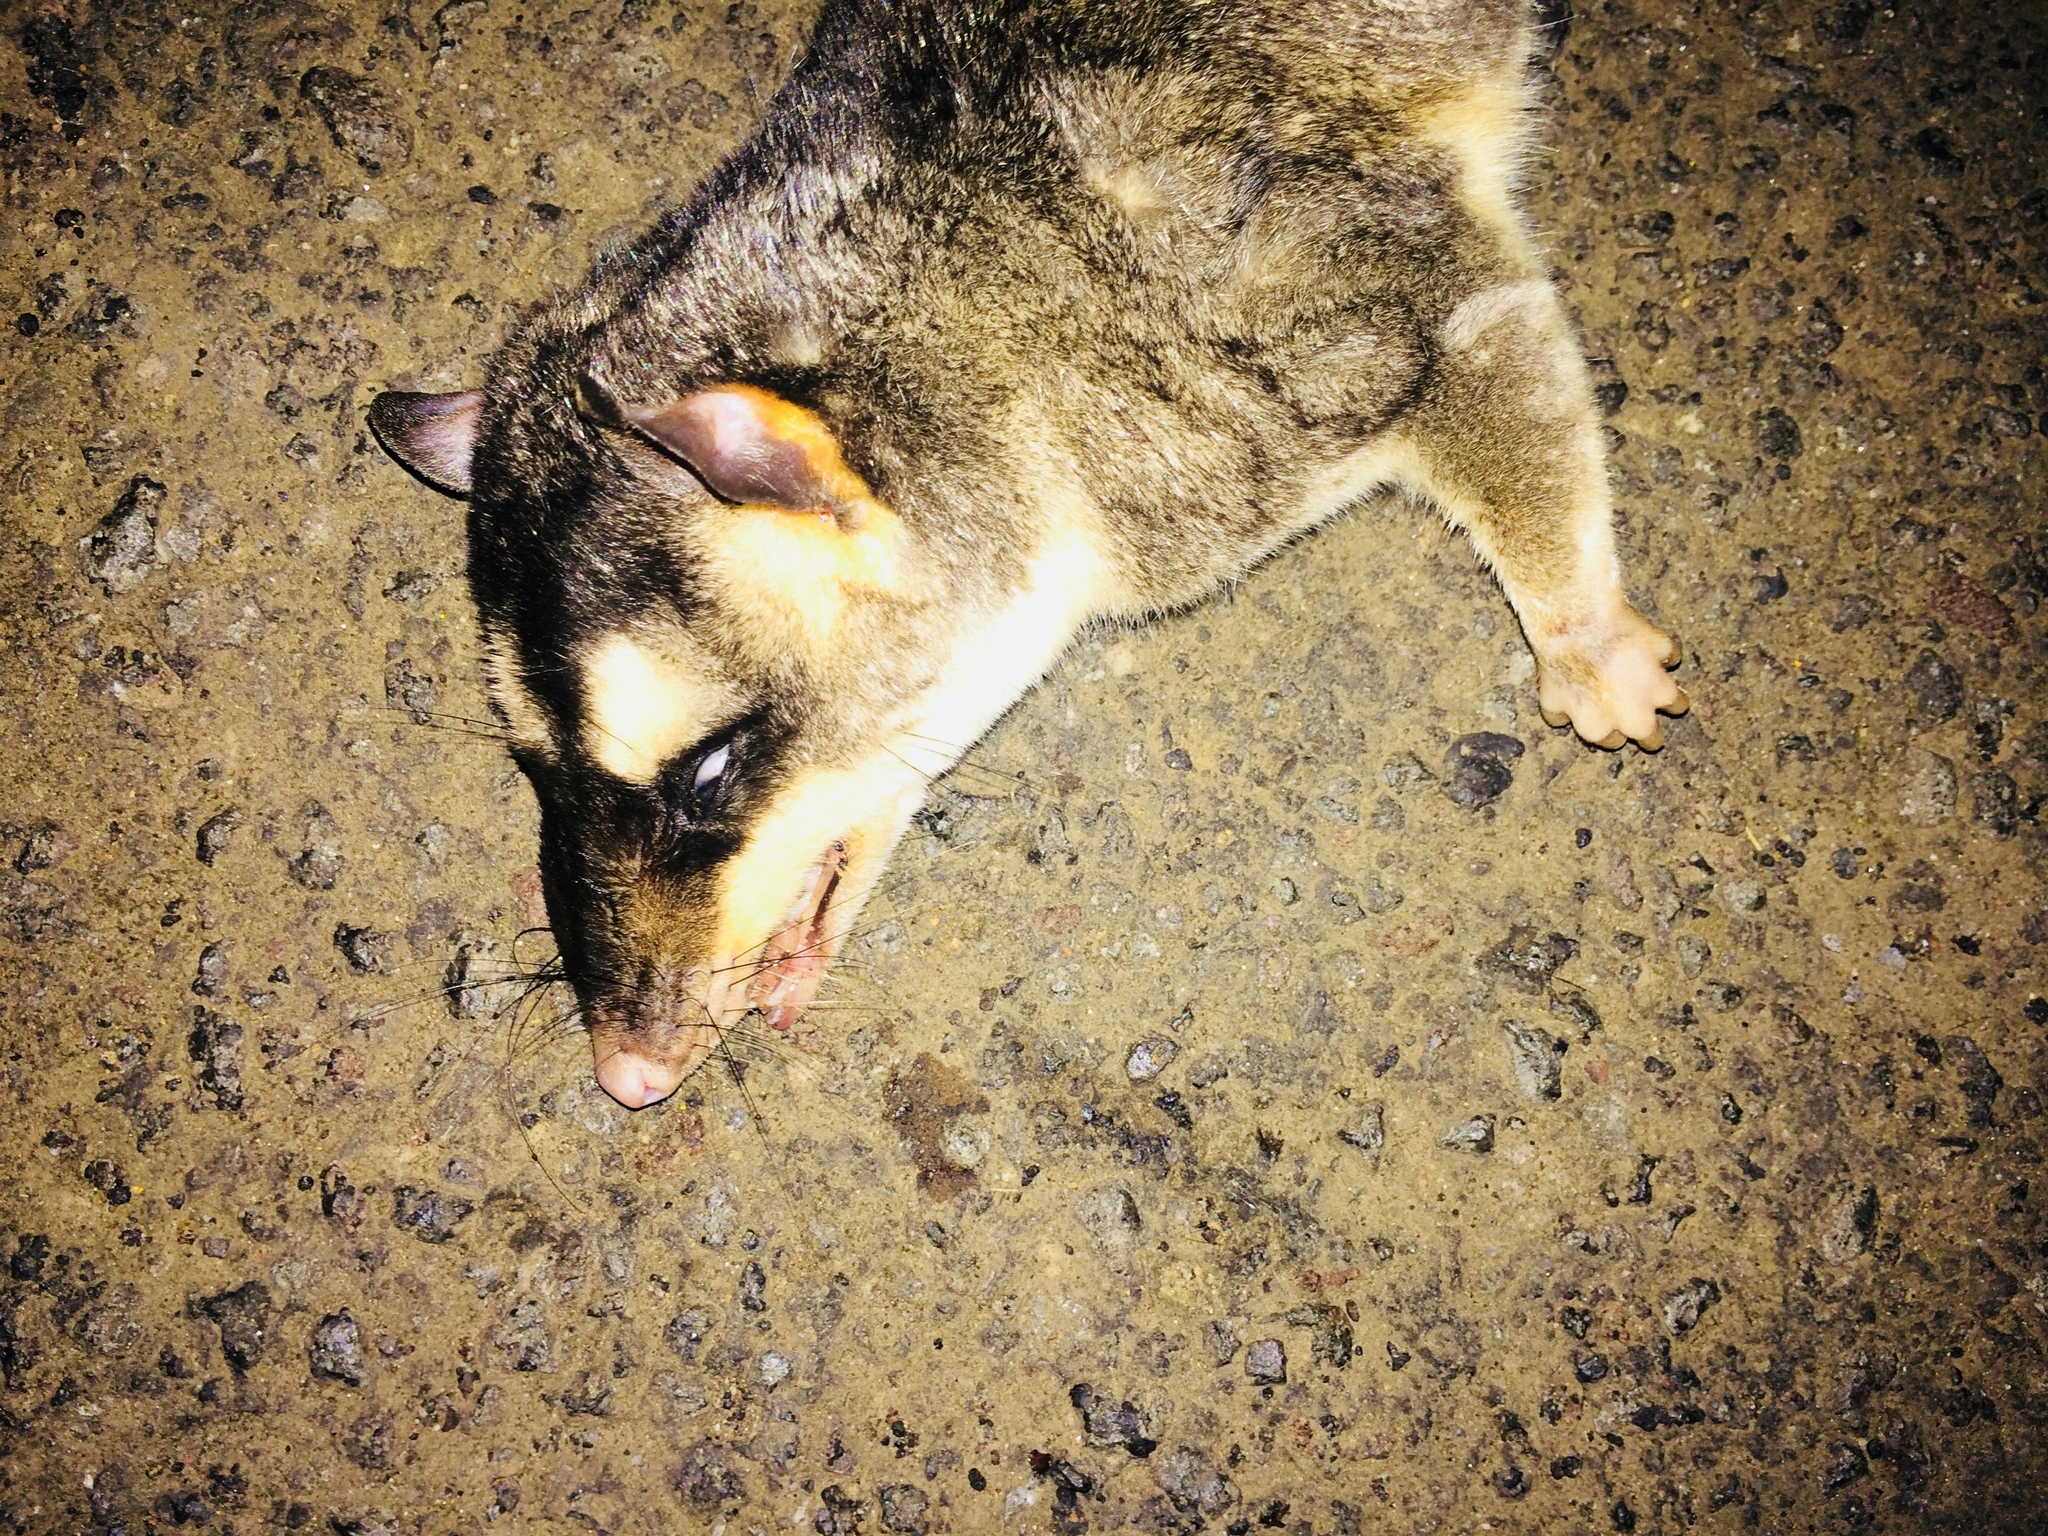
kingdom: Animalia
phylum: Chordata
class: Mammalia
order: Didelphimorphia
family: Didelphidae
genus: Philander
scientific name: Philander
